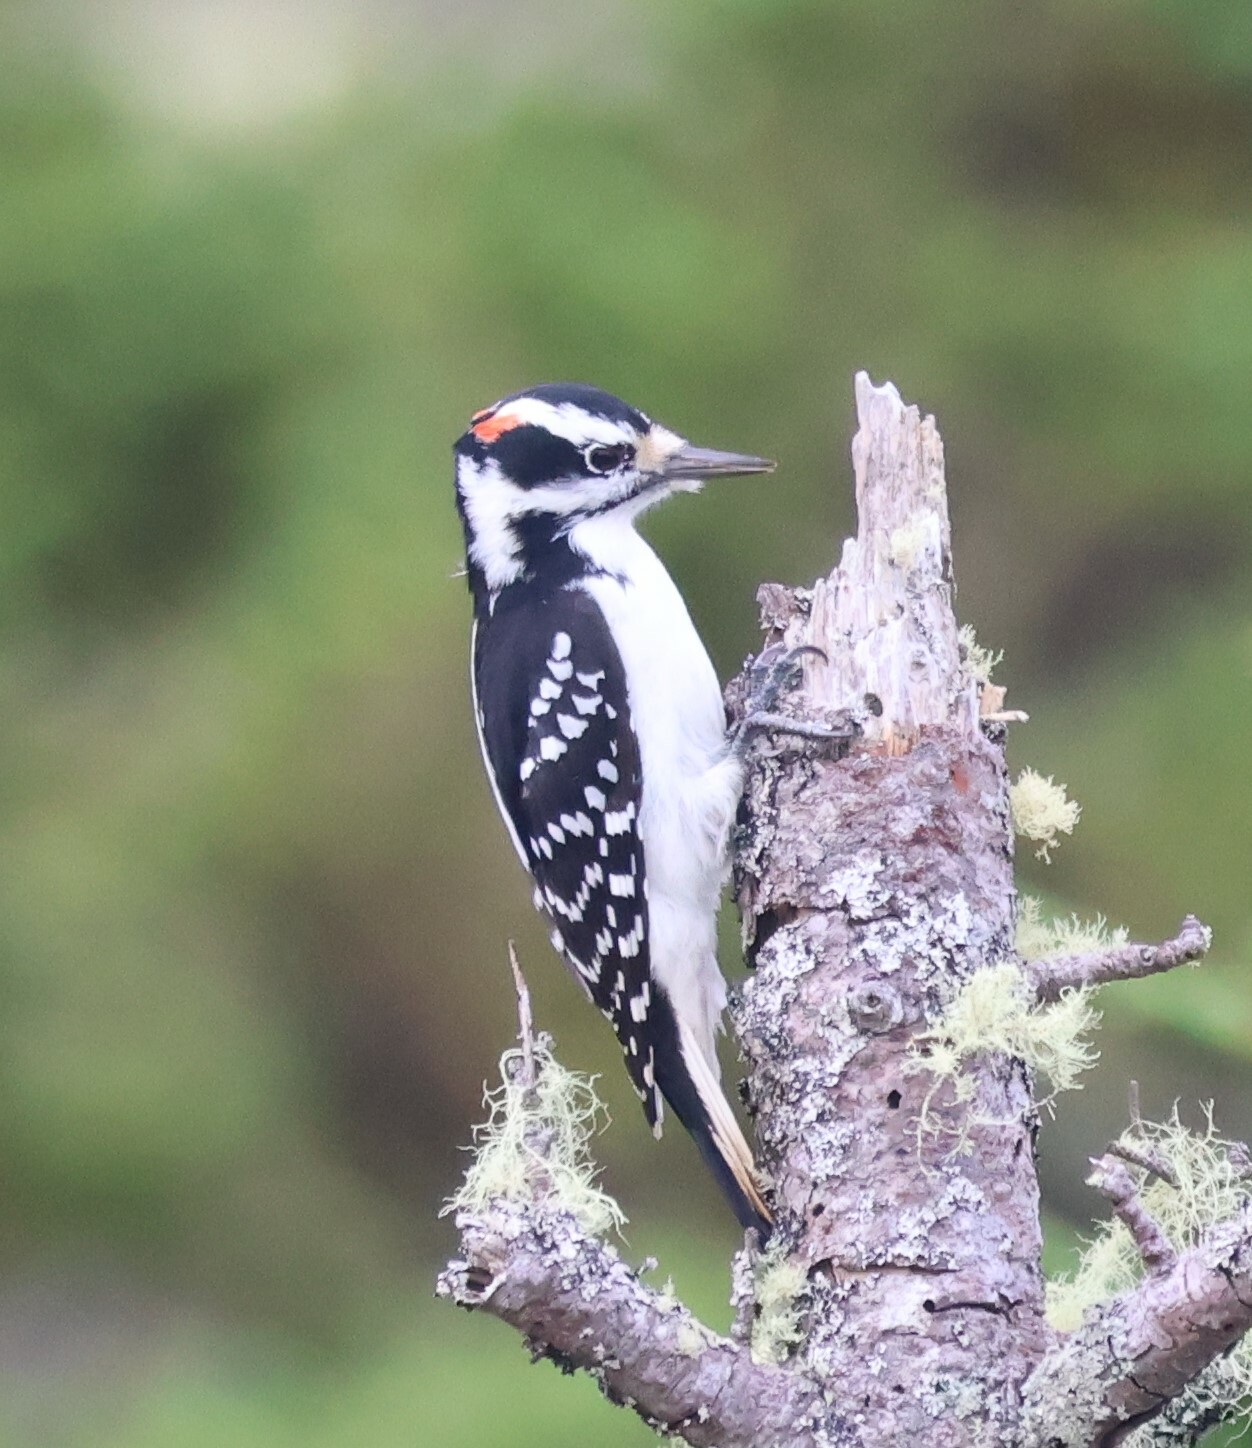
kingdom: Animalia
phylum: Chordata
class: Aves
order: Piciformes
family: Picidae
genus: Leuconotopicus
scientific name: Leuconotopicus villosus
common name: Hairy woodpecker
